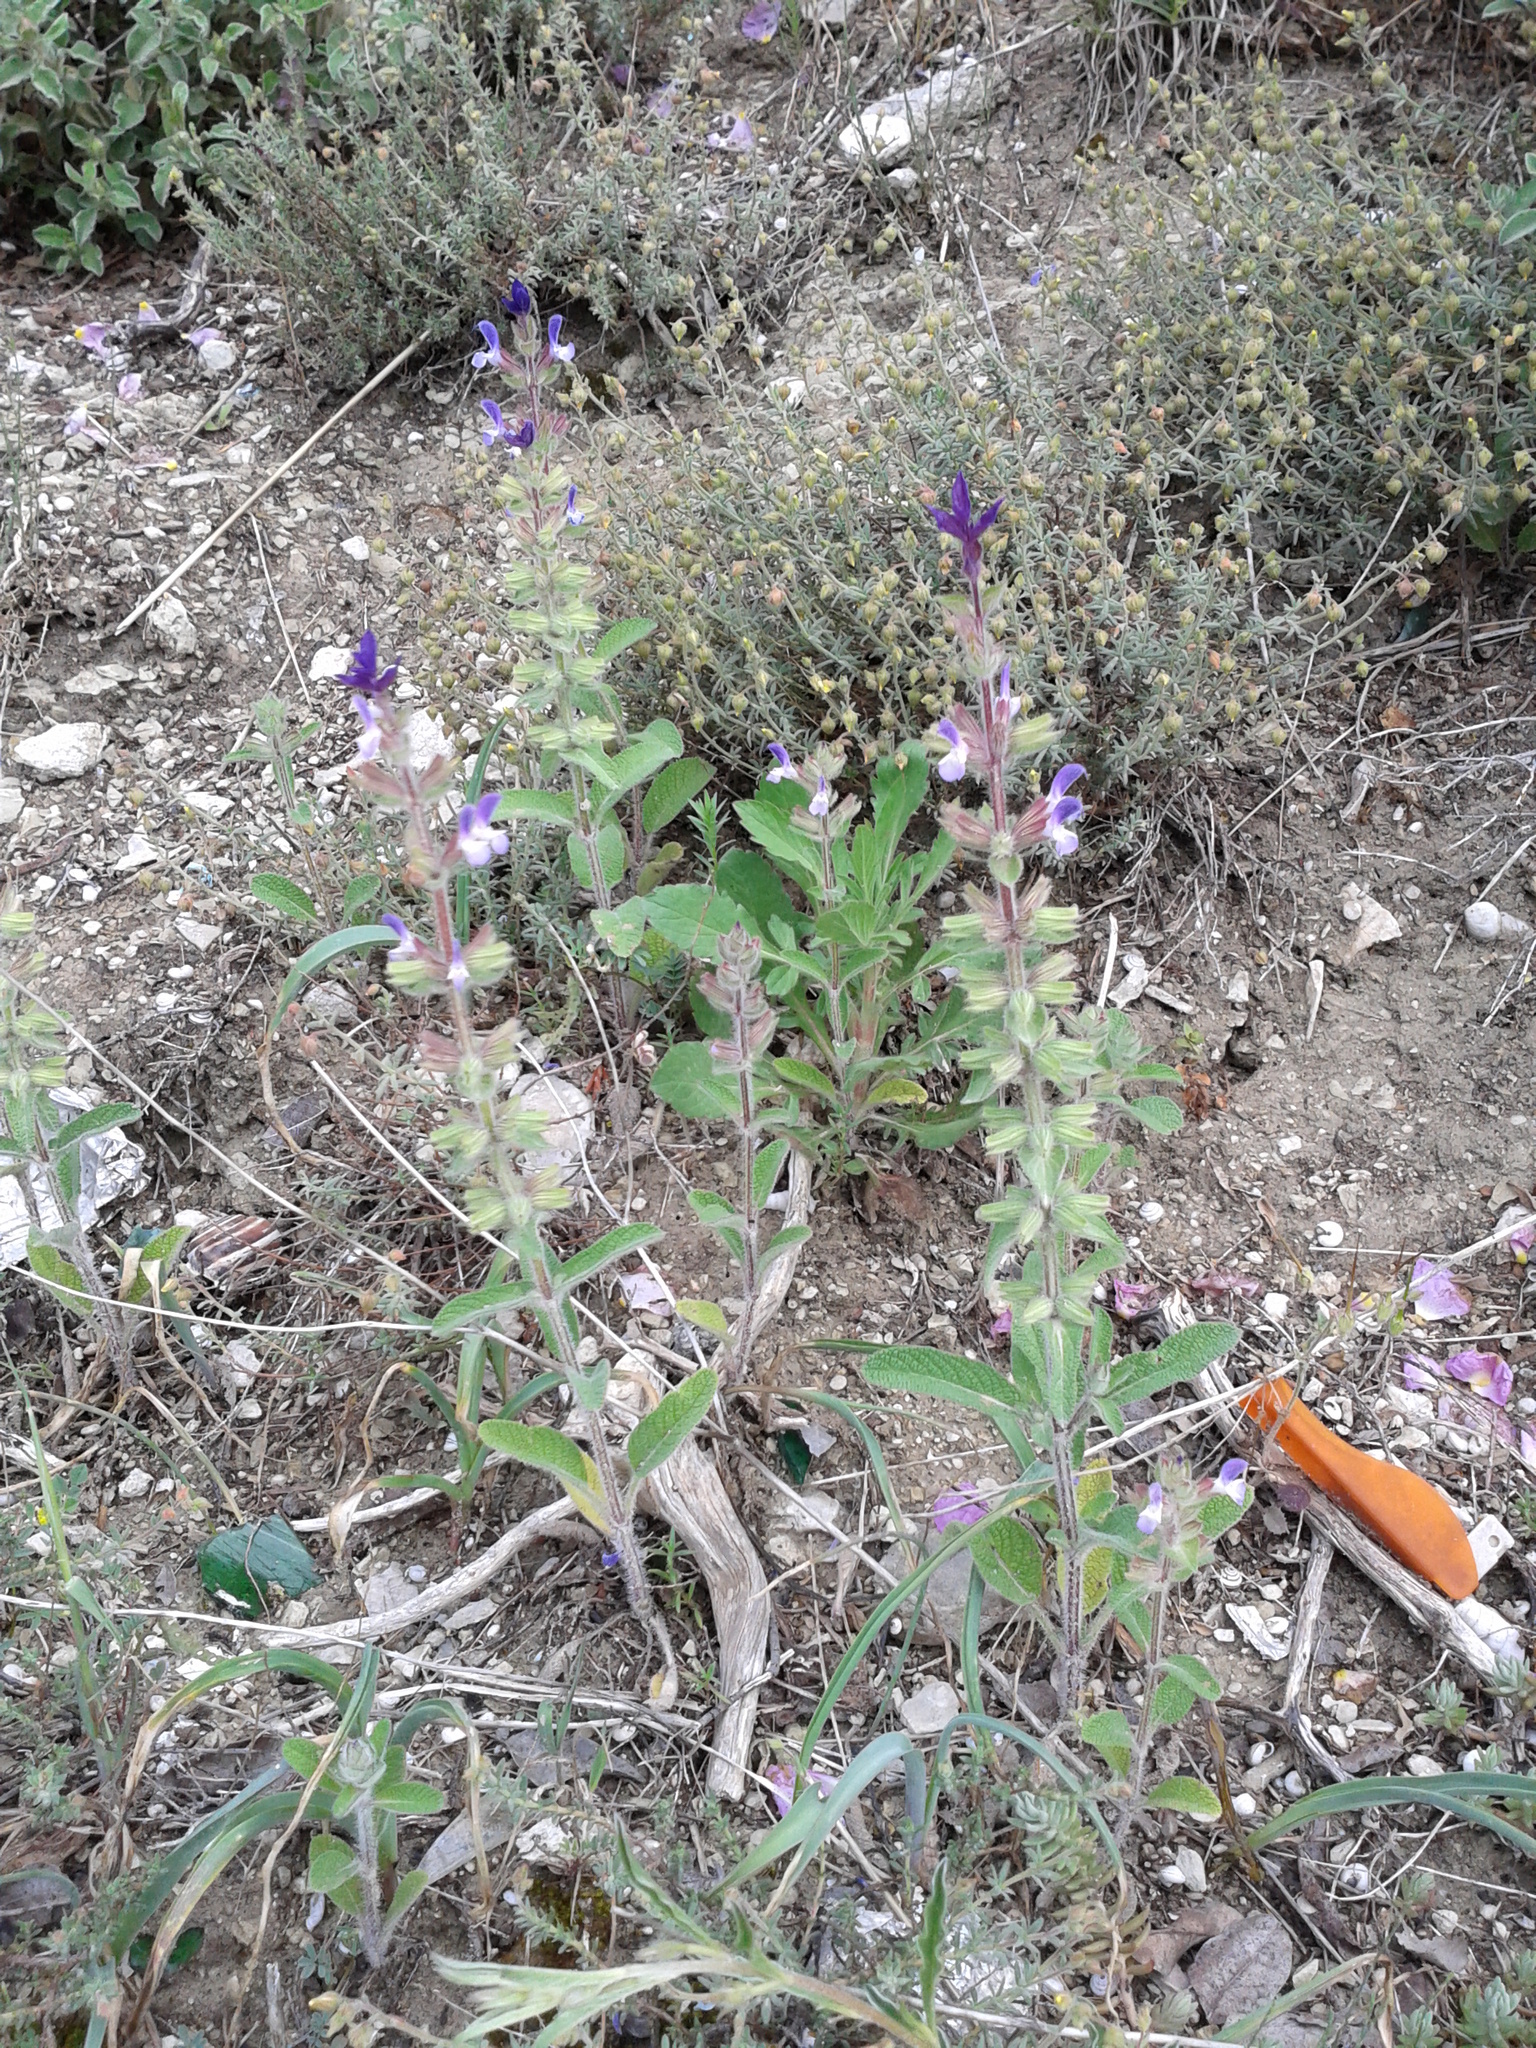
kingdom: Plantae
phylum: Tracheophyta
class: Magnoliopsida
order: Lamiales
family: Lamiaceae
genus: Salvia
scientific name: Salvia viridis
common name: Annual clary
